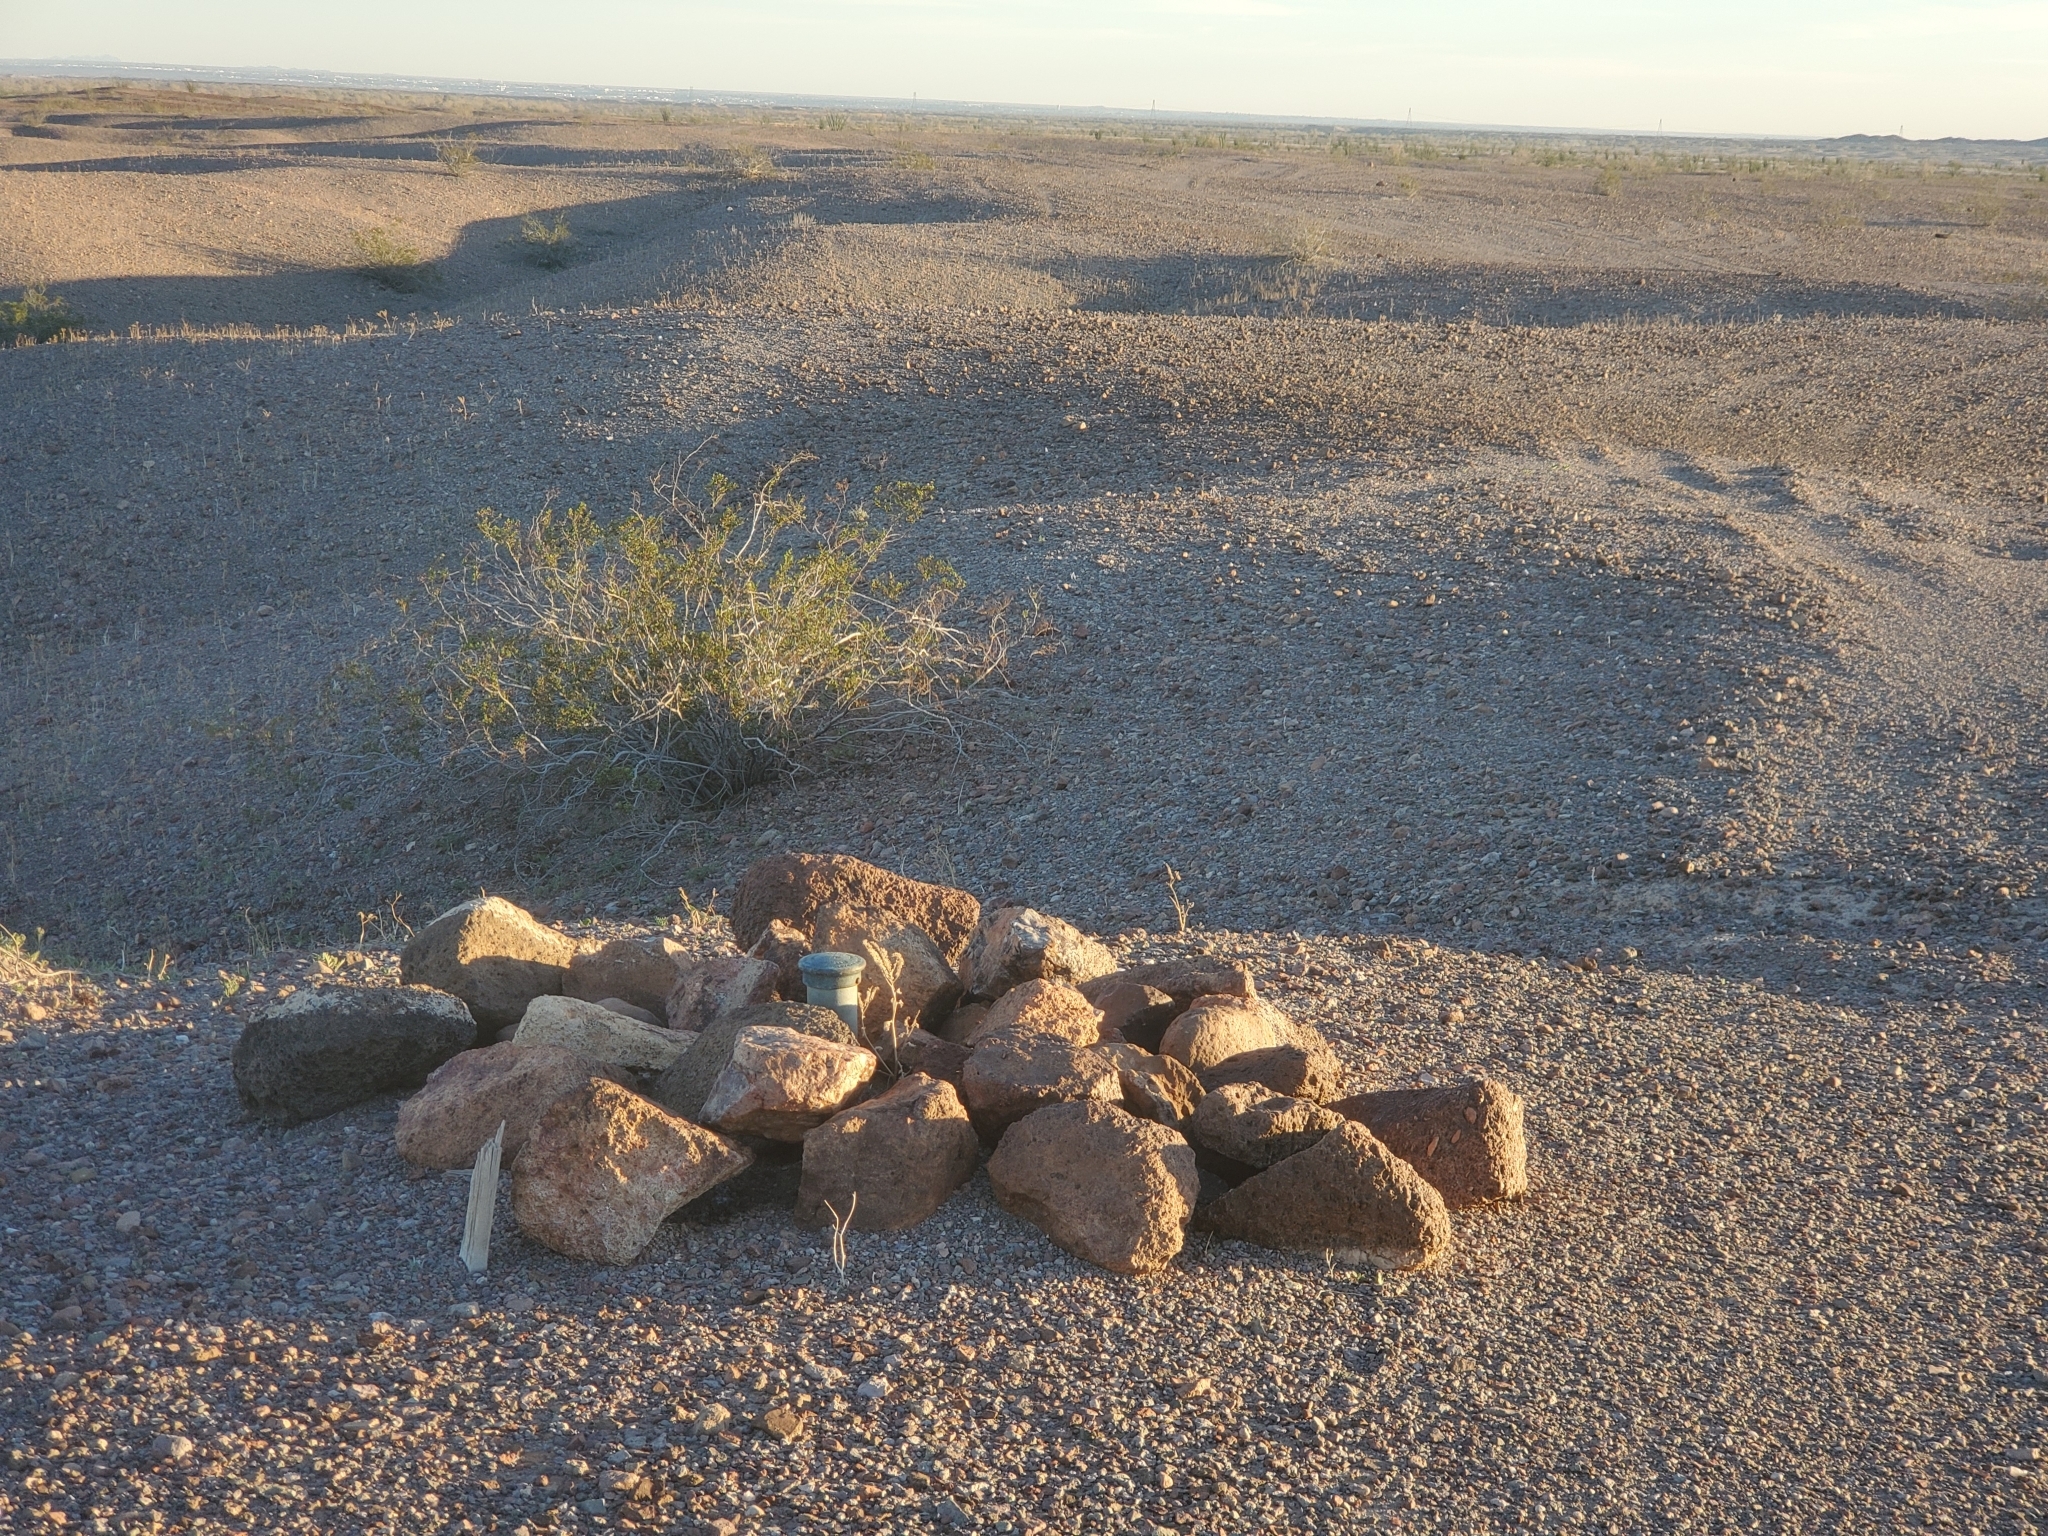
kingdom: Plantae
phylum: Tracheophyta
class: Magnoliopsida
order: Zygophyllales
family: Zygophyllaceae
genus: Larrea
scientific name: Larrea tridentata
